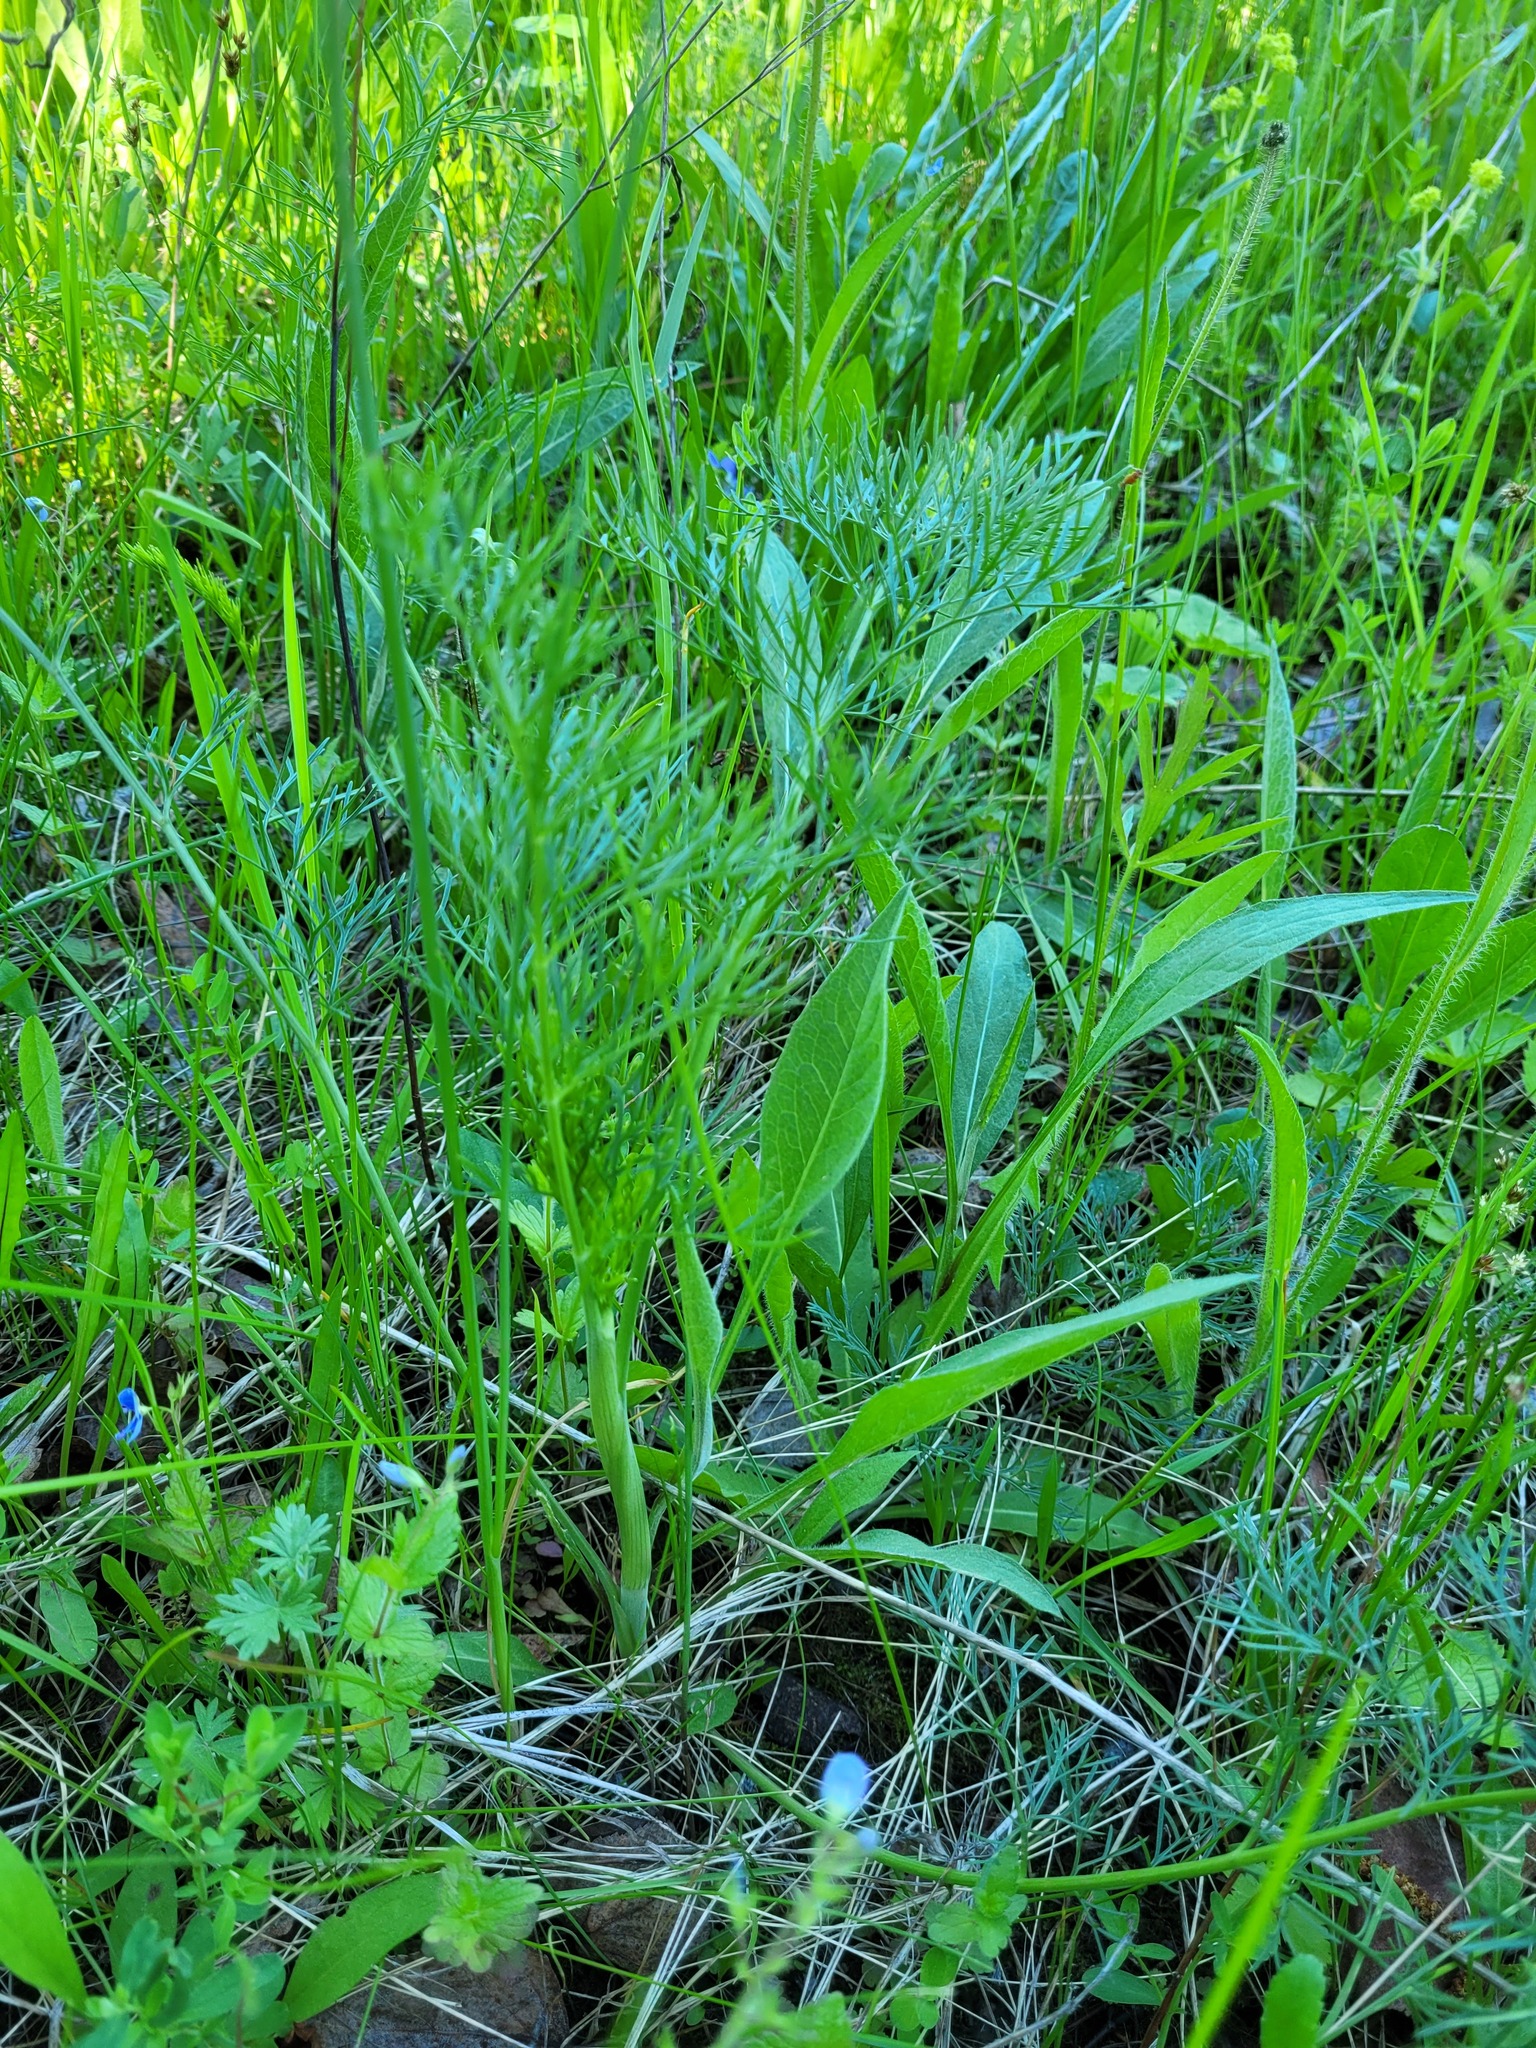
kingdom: Plantae
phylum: Tracheophyta
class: Magnoliopsida
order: Apiales
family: Apiaceae
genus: Seseli
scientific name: Seseli annuum
